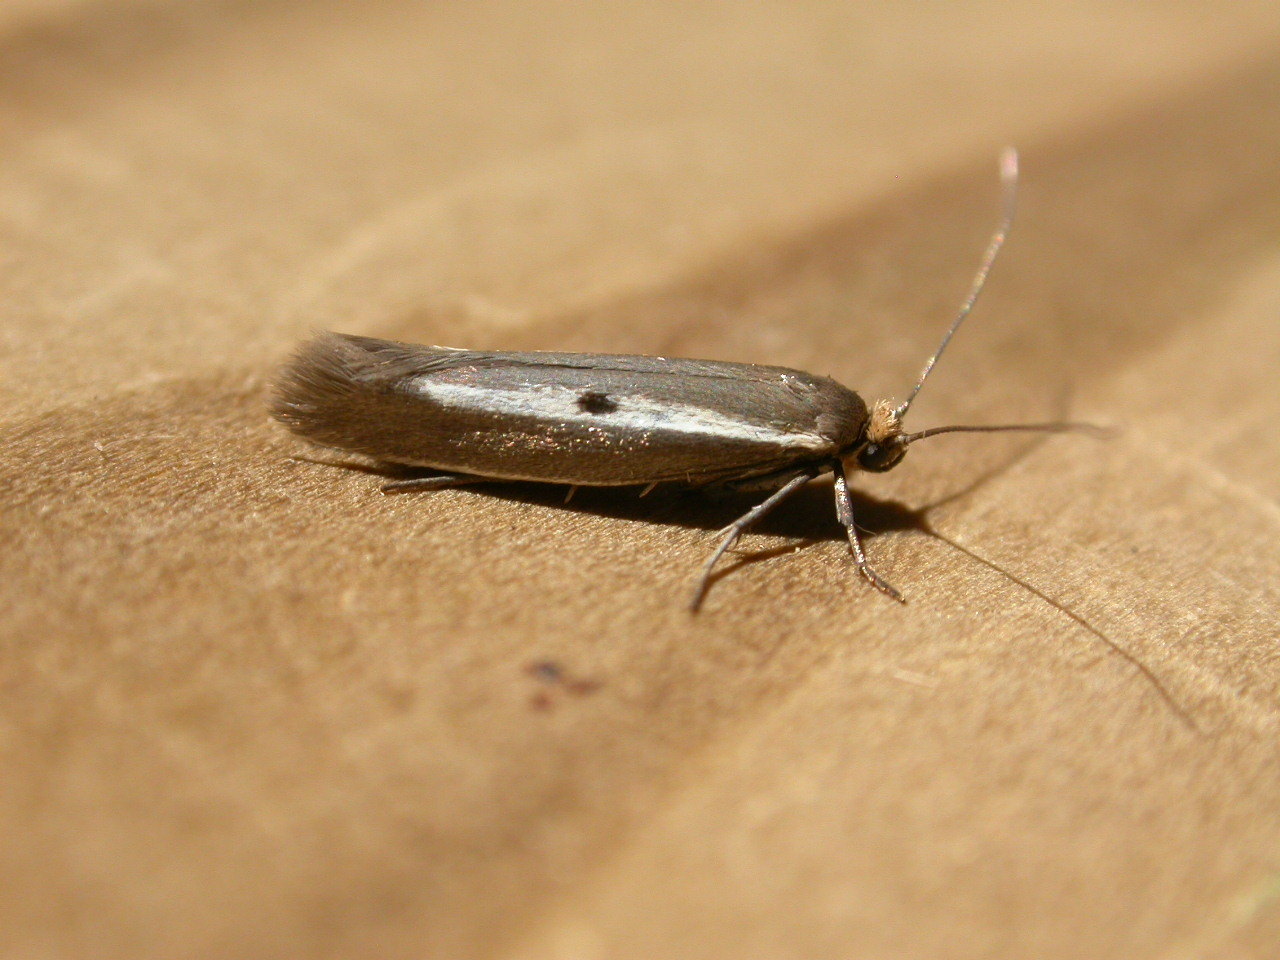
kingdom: Animalia
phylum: Arthropoda
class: Insecta
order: Lepidoptera
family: Yponomeutidae
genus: Parahyponomeuta
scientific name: Parahyponomeuta egregiella
